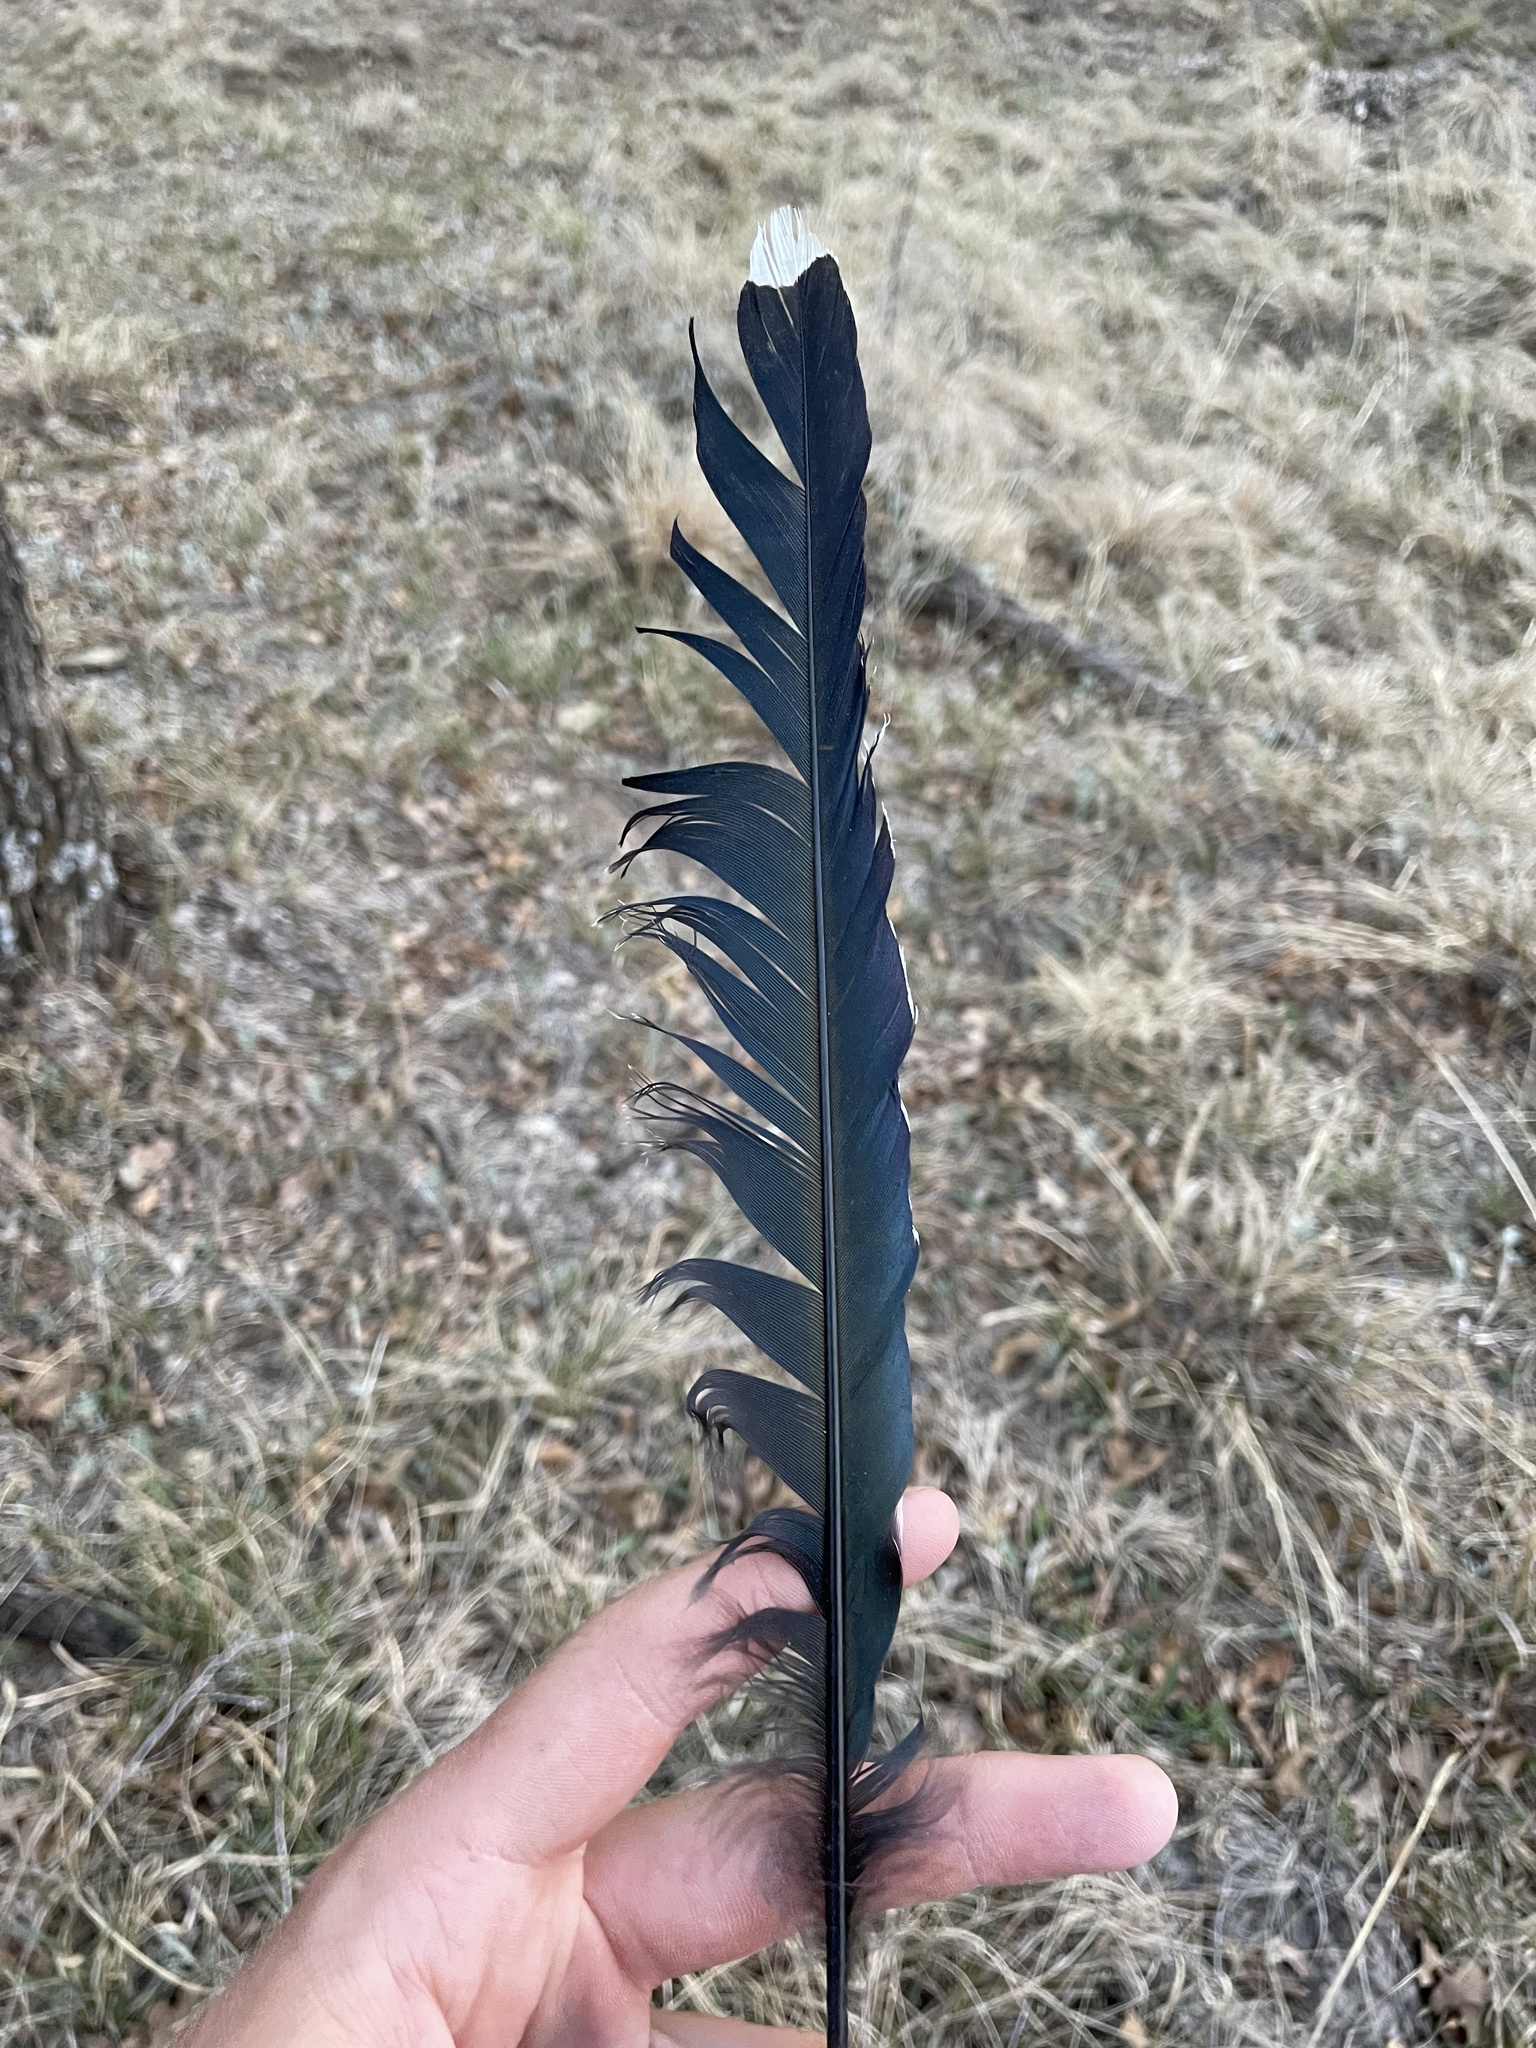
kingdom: Animalia
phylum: Chordata
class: Aves
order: Cuculiformes
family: Cuculidae
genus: Geococcyx
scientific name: Geococcyx californianus
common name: Greater roadrunner
